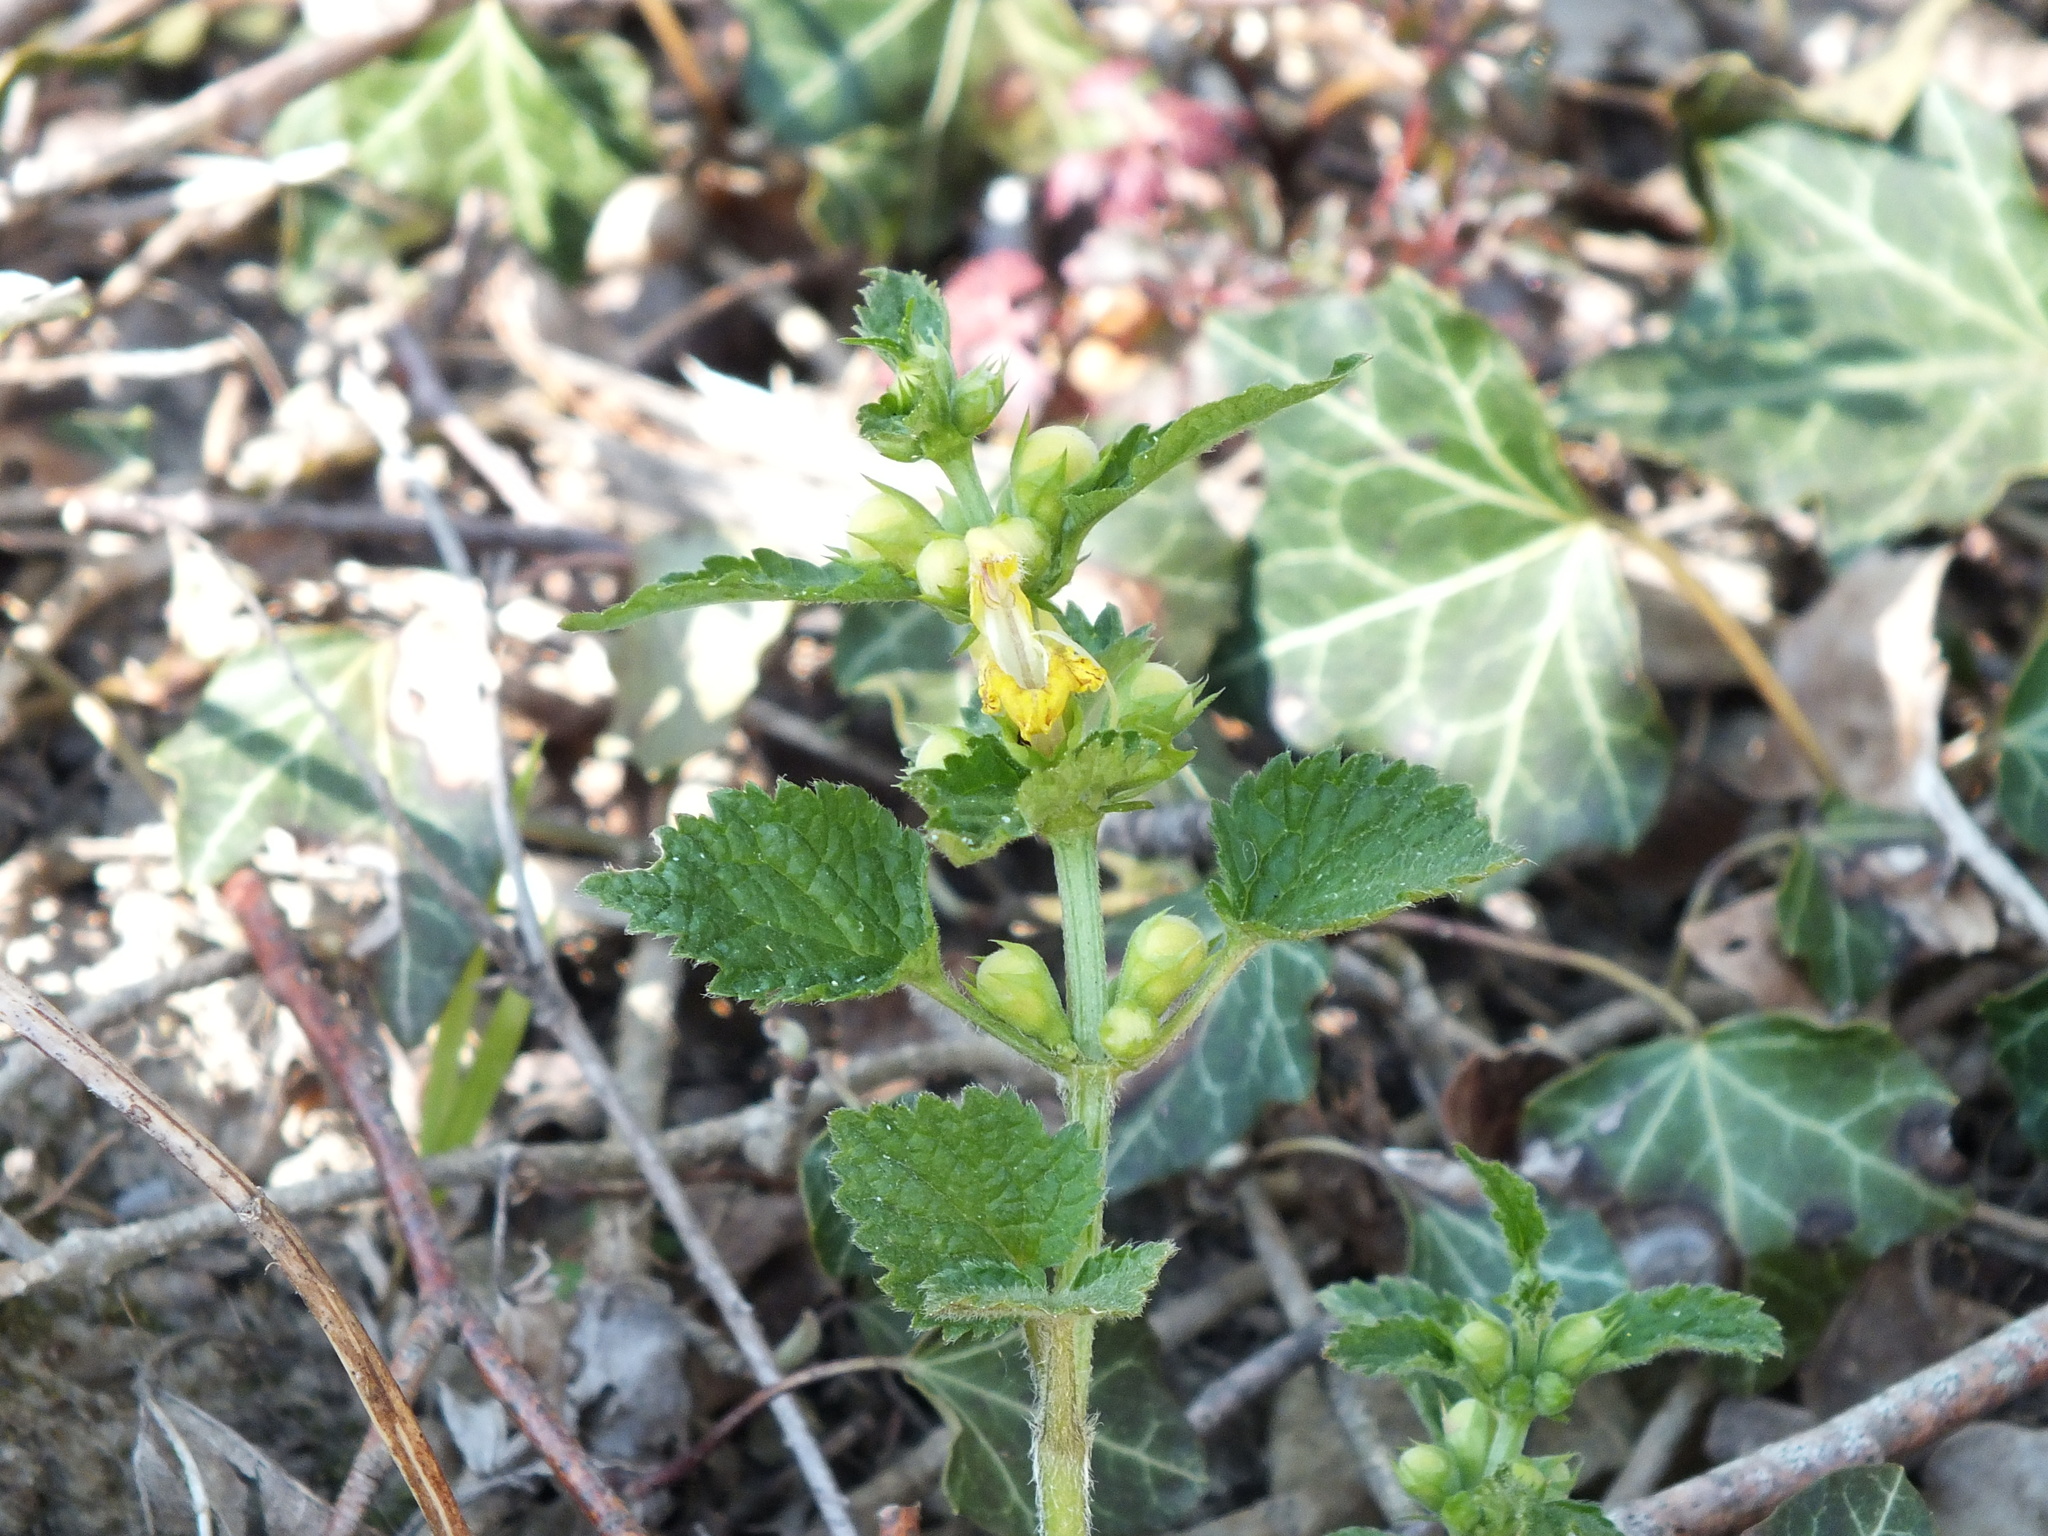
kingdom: Plantae
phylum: Tracheophyta
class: Magnoliopsida
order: Lamiales
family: Lamiaceae
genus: Lamium
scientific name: Lamium galeobdolon
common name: Yellow archangel
